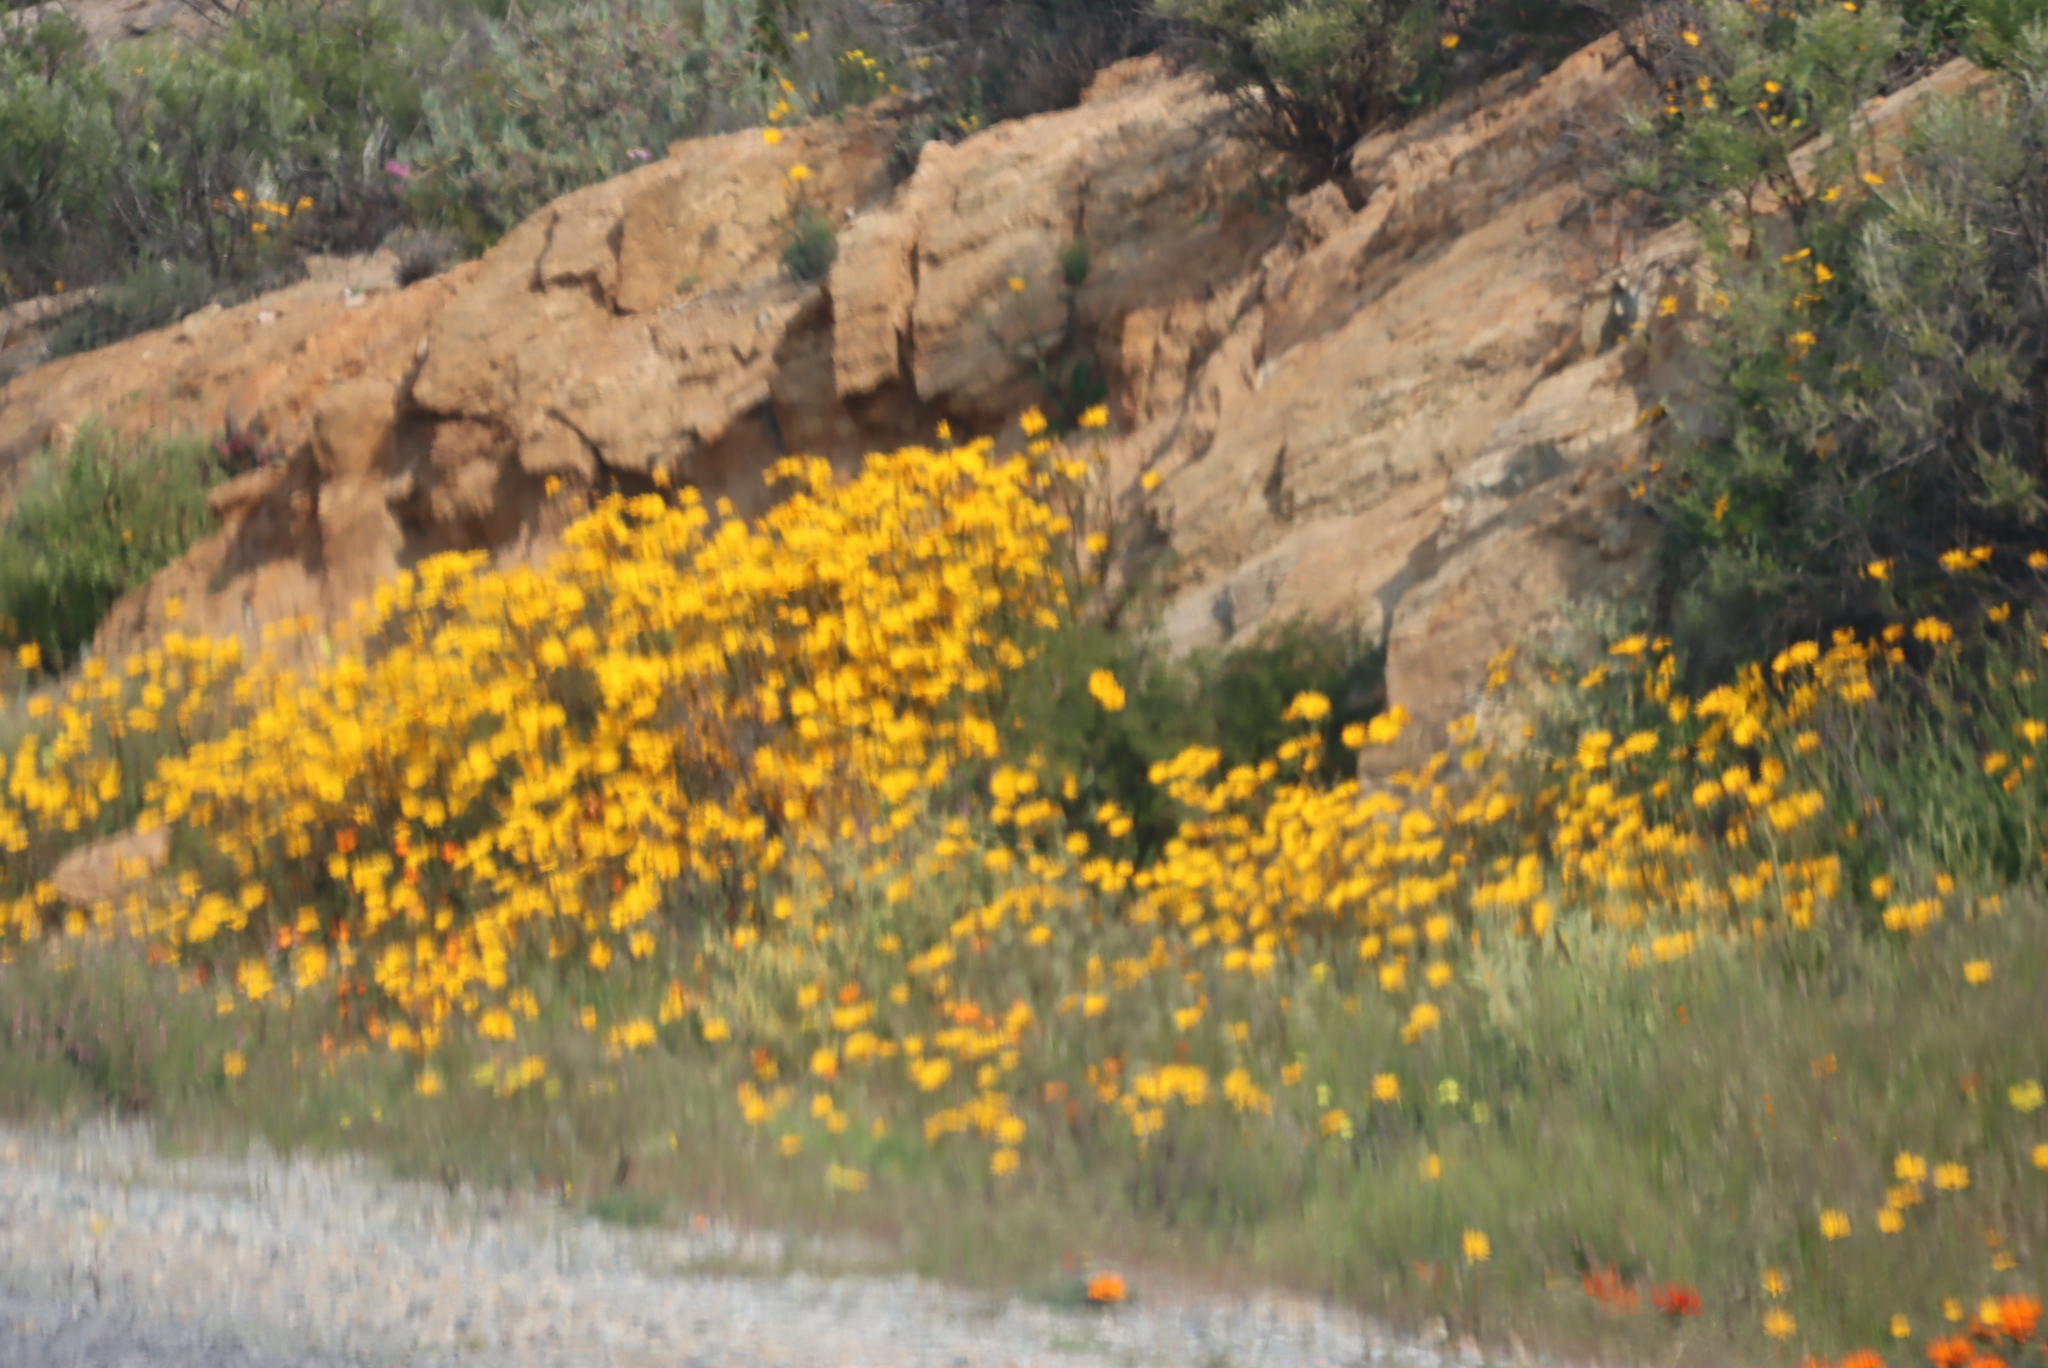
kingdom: Plantae
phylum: Tracheophyta
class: Magnoliopsida
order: Asterales
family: Asteraceae
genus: Dimorphotheca
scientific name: Dimorphotheca sinuata
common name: Glandular cape marigold
